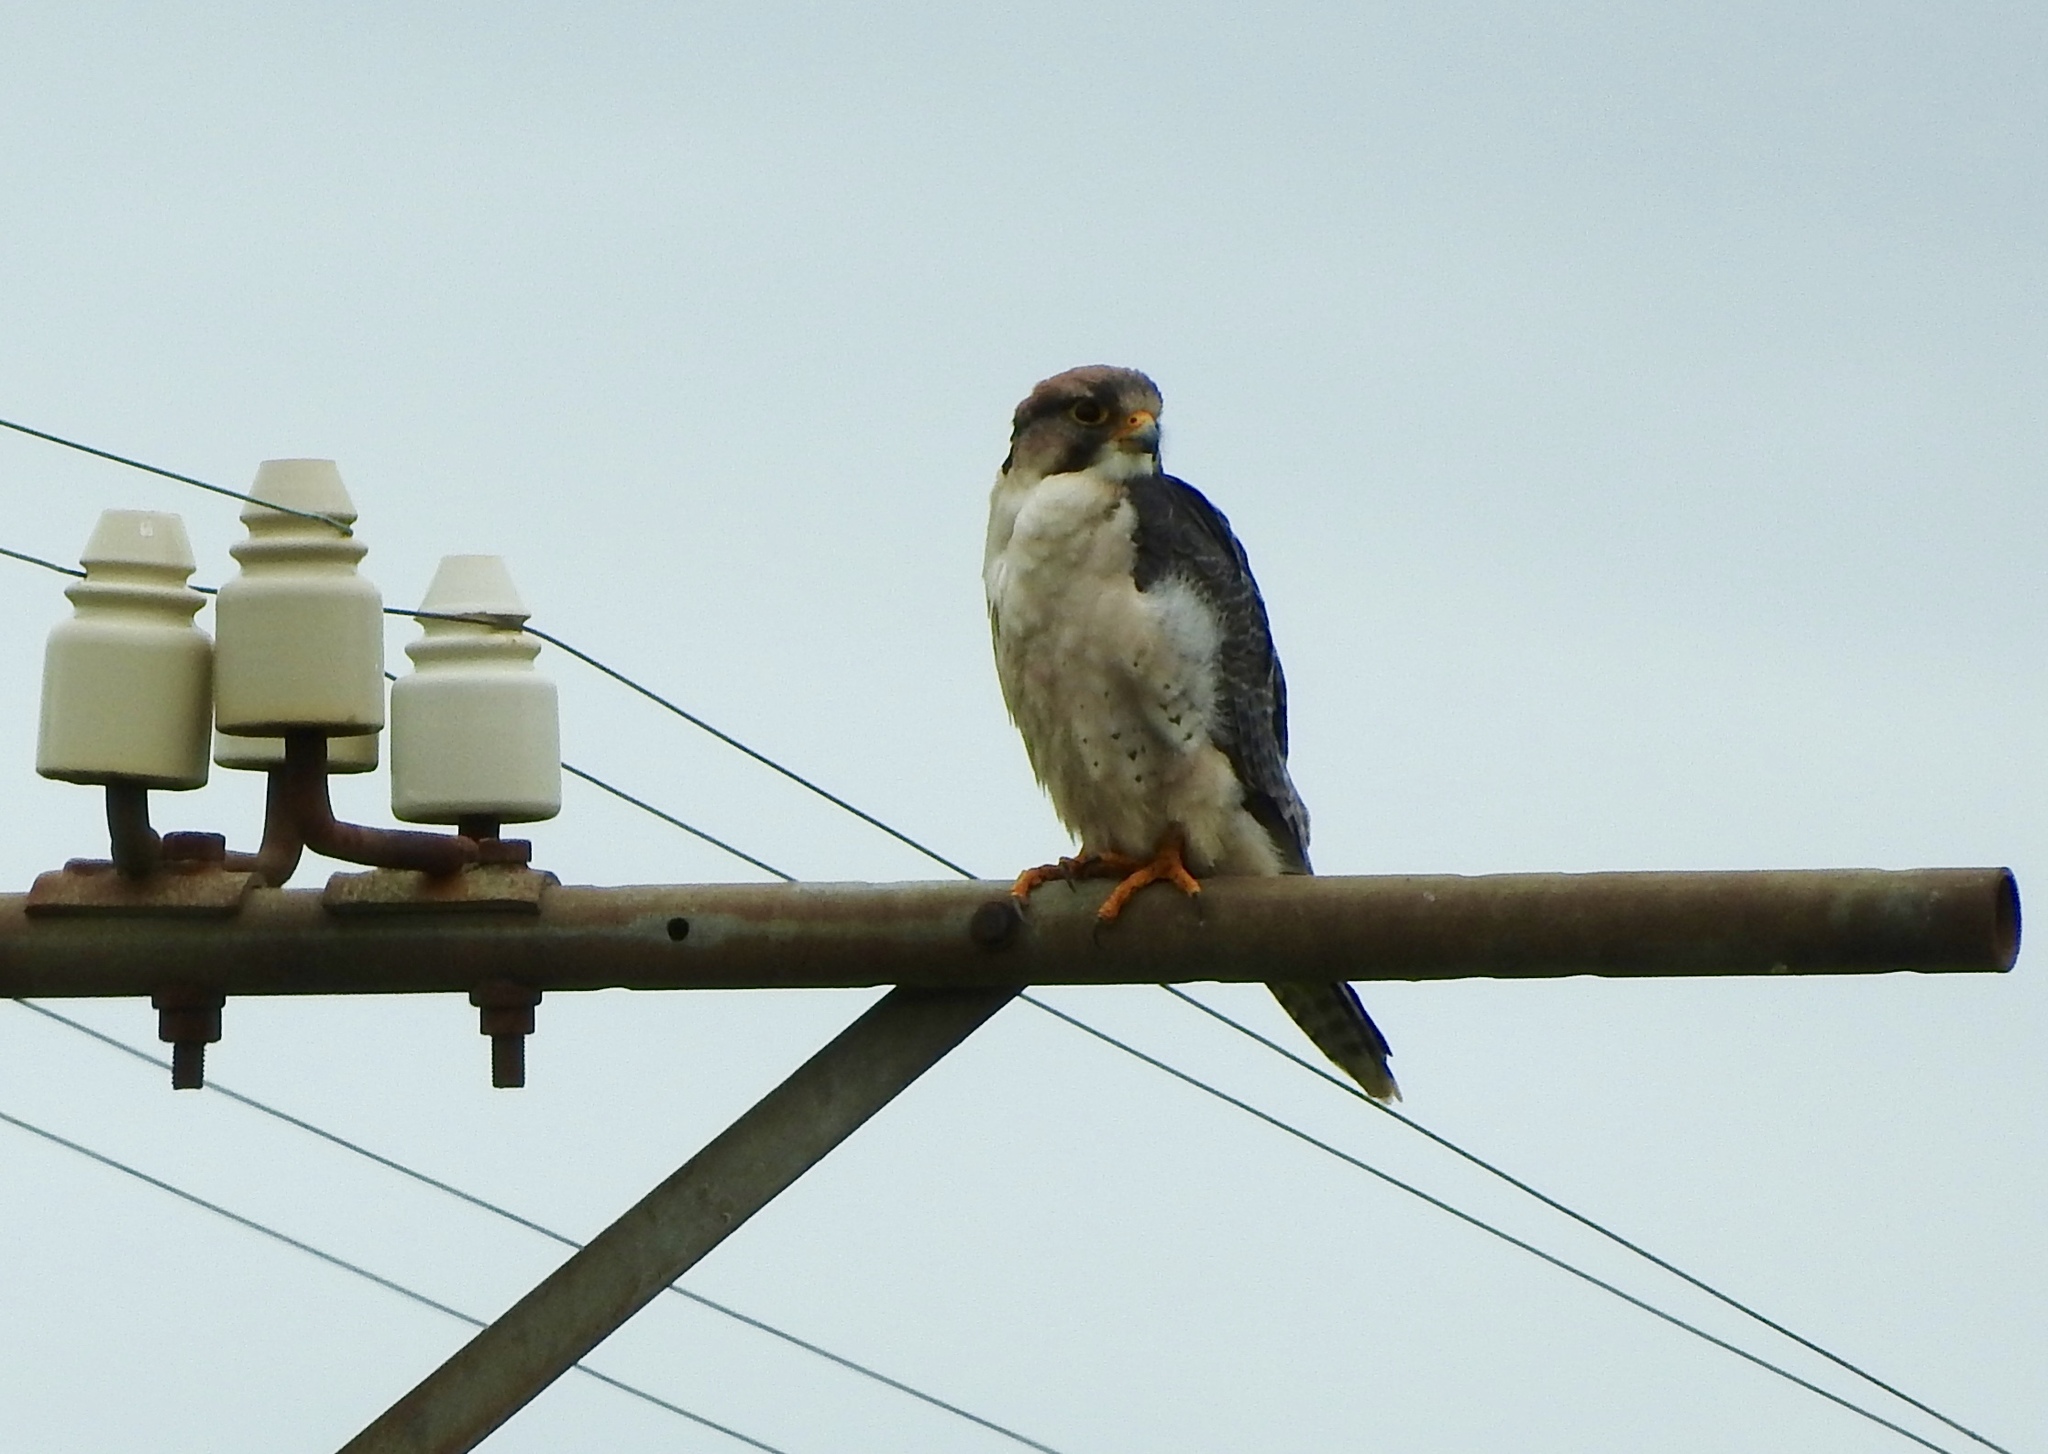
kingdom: Animalia
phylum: Chordata
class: Aves
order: Falconiformes
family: Falconidae
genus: Falco
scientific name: Falco biarmicus
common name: Lanner falcon
